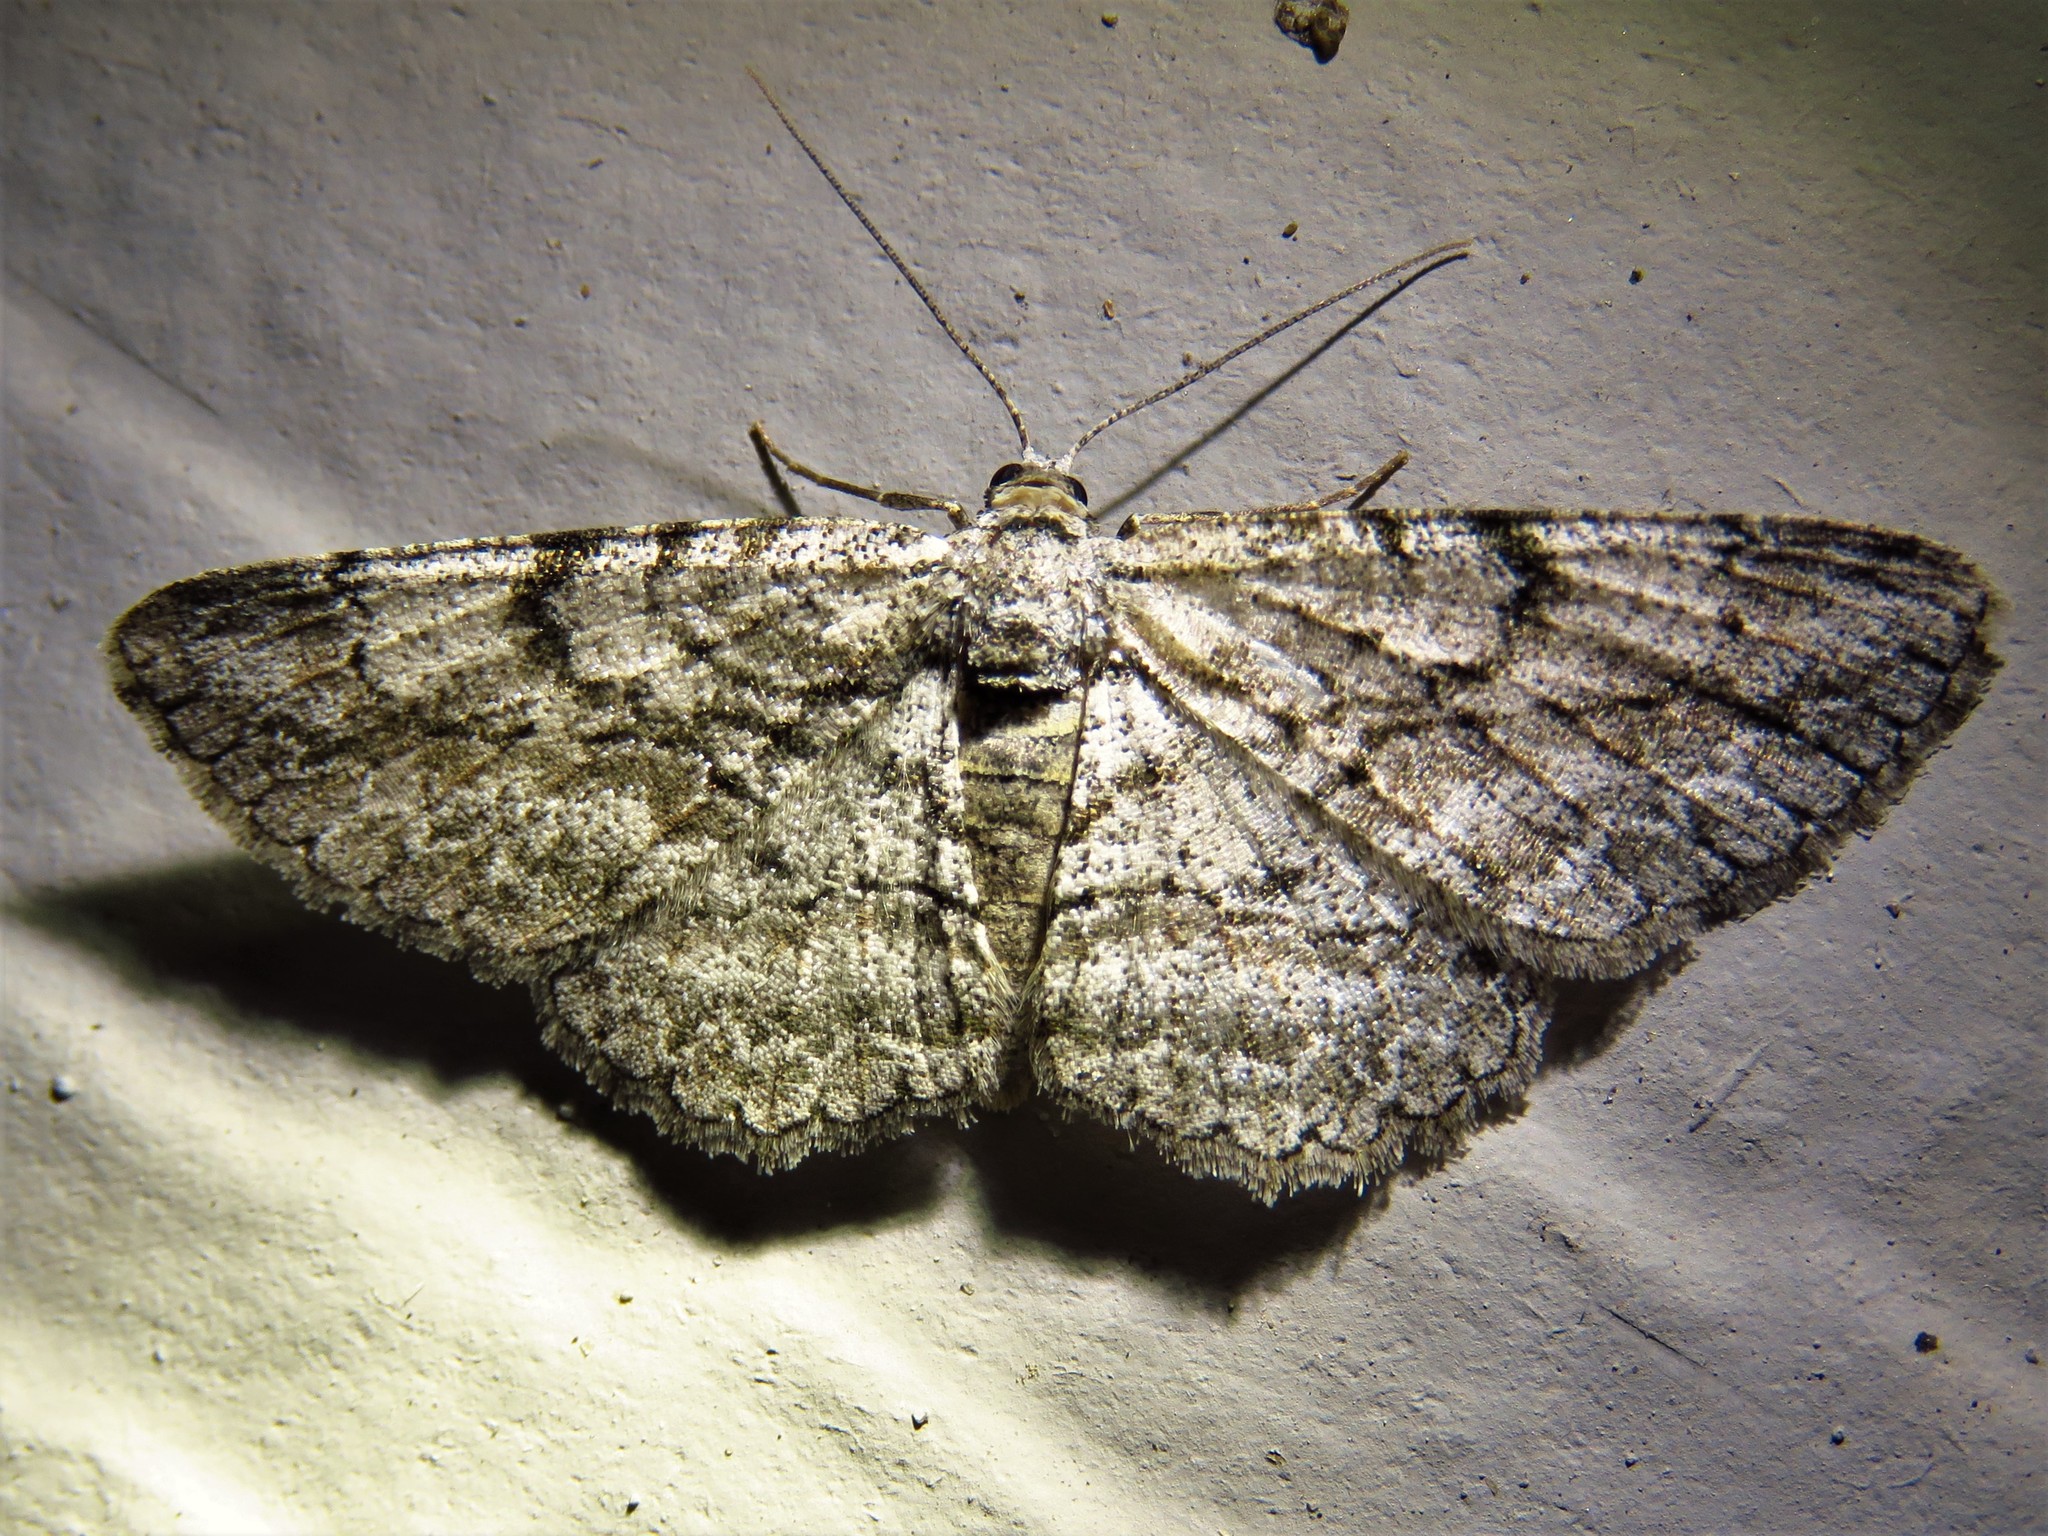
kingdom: Animalia
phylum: Arthropoda
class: Insecta
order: Lepidoptera
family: Geometridae
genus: Anavitrinella
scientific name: Anavitrinella pampinaria
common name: Common gray
